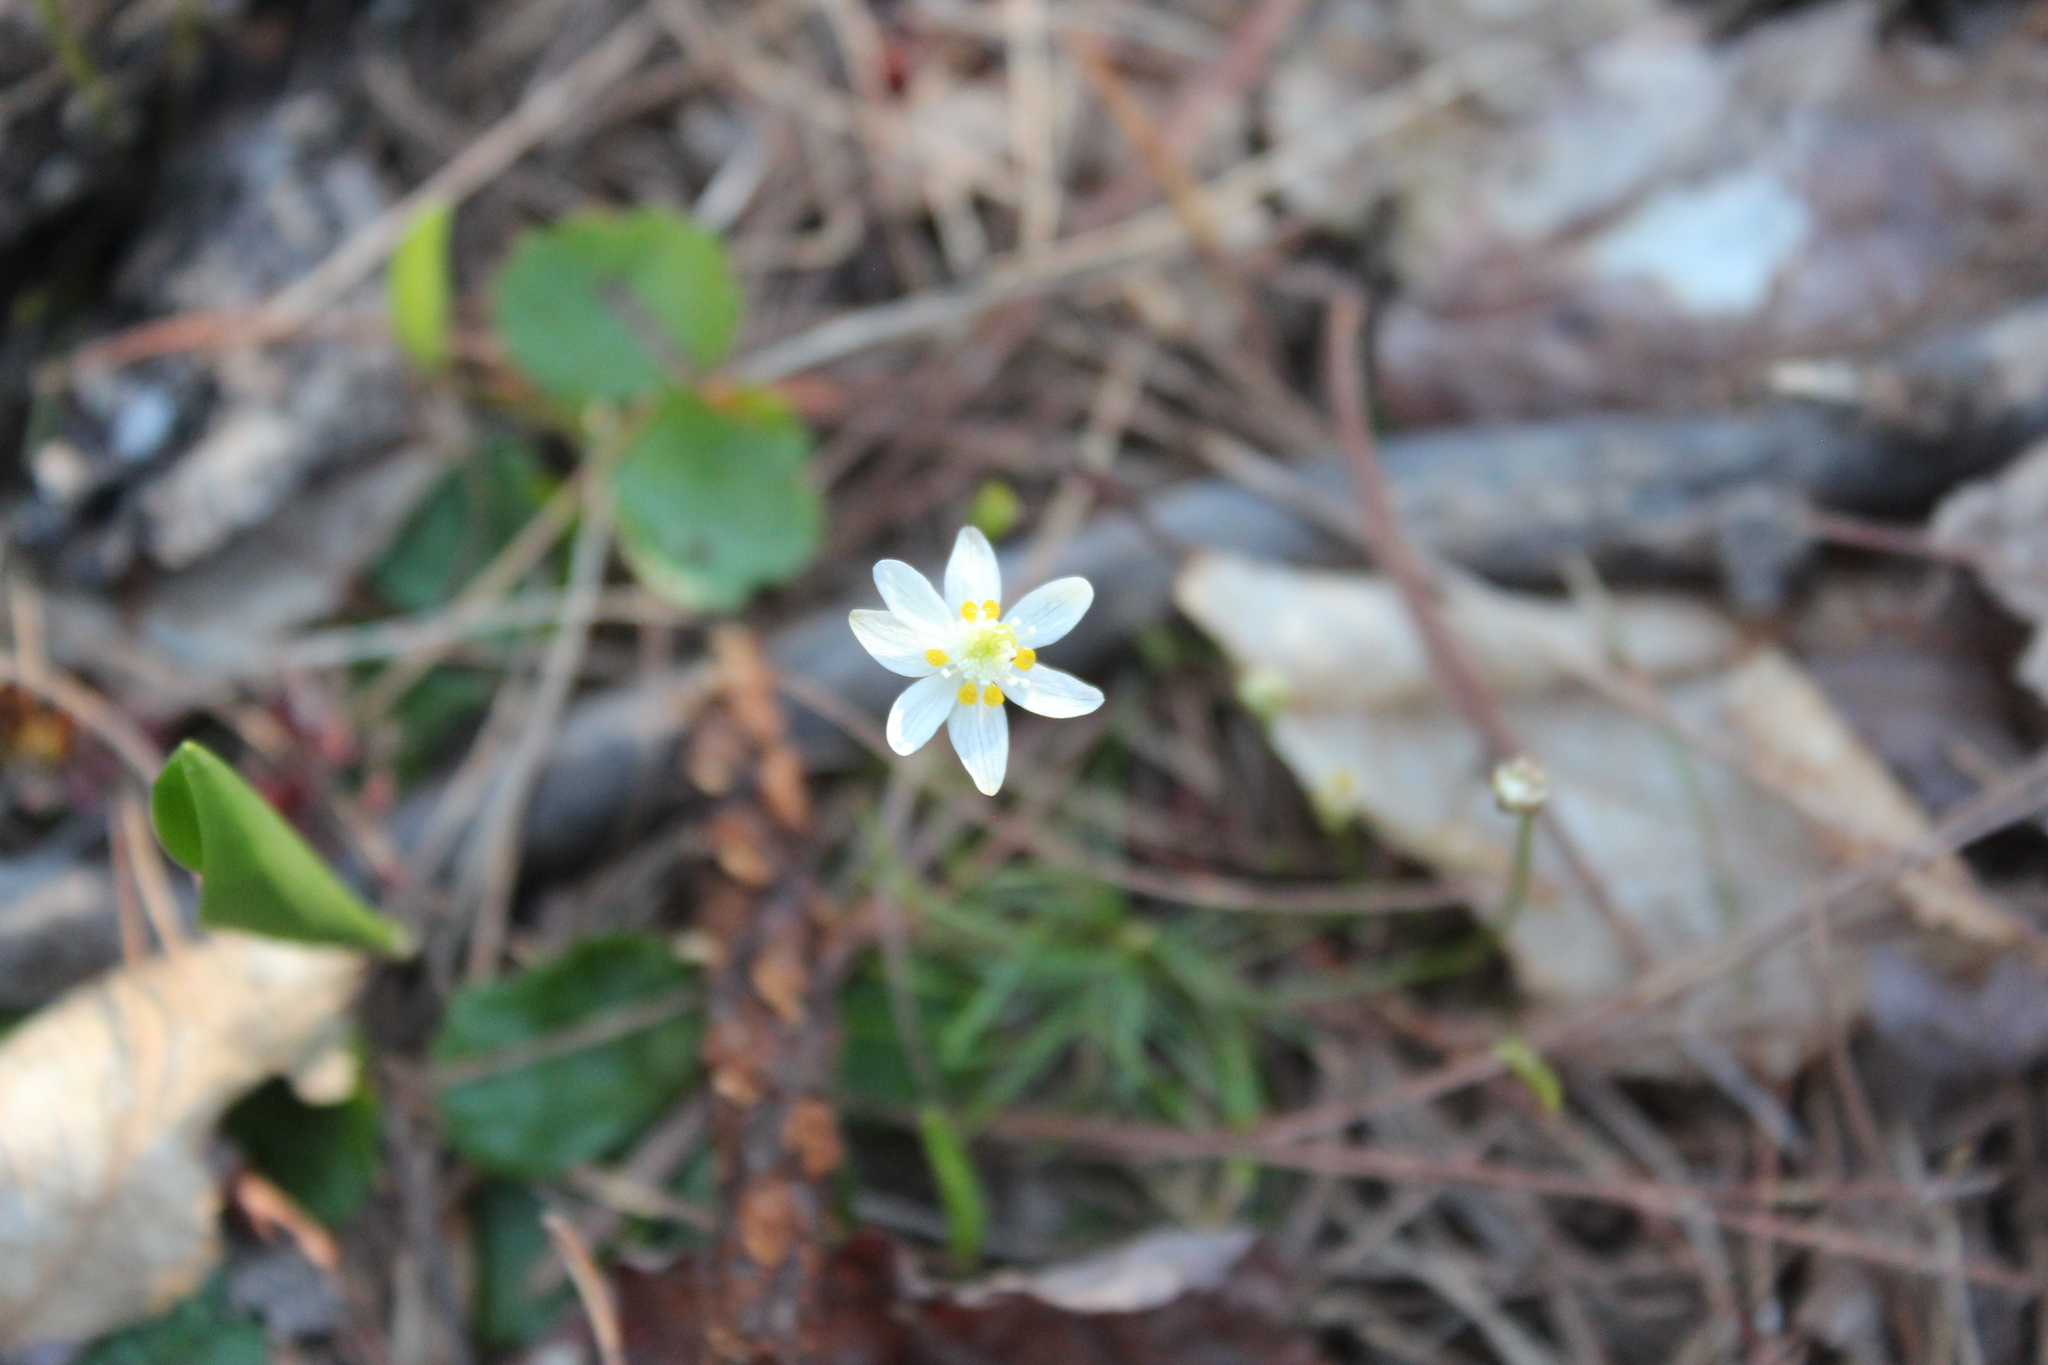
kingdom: Plantae
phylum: Tracheophyta
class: Magnoliopsida
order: Ranunculales
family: Ranunculaceae
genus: Coptis
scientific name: Coptis trifolia
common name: Canker-root
